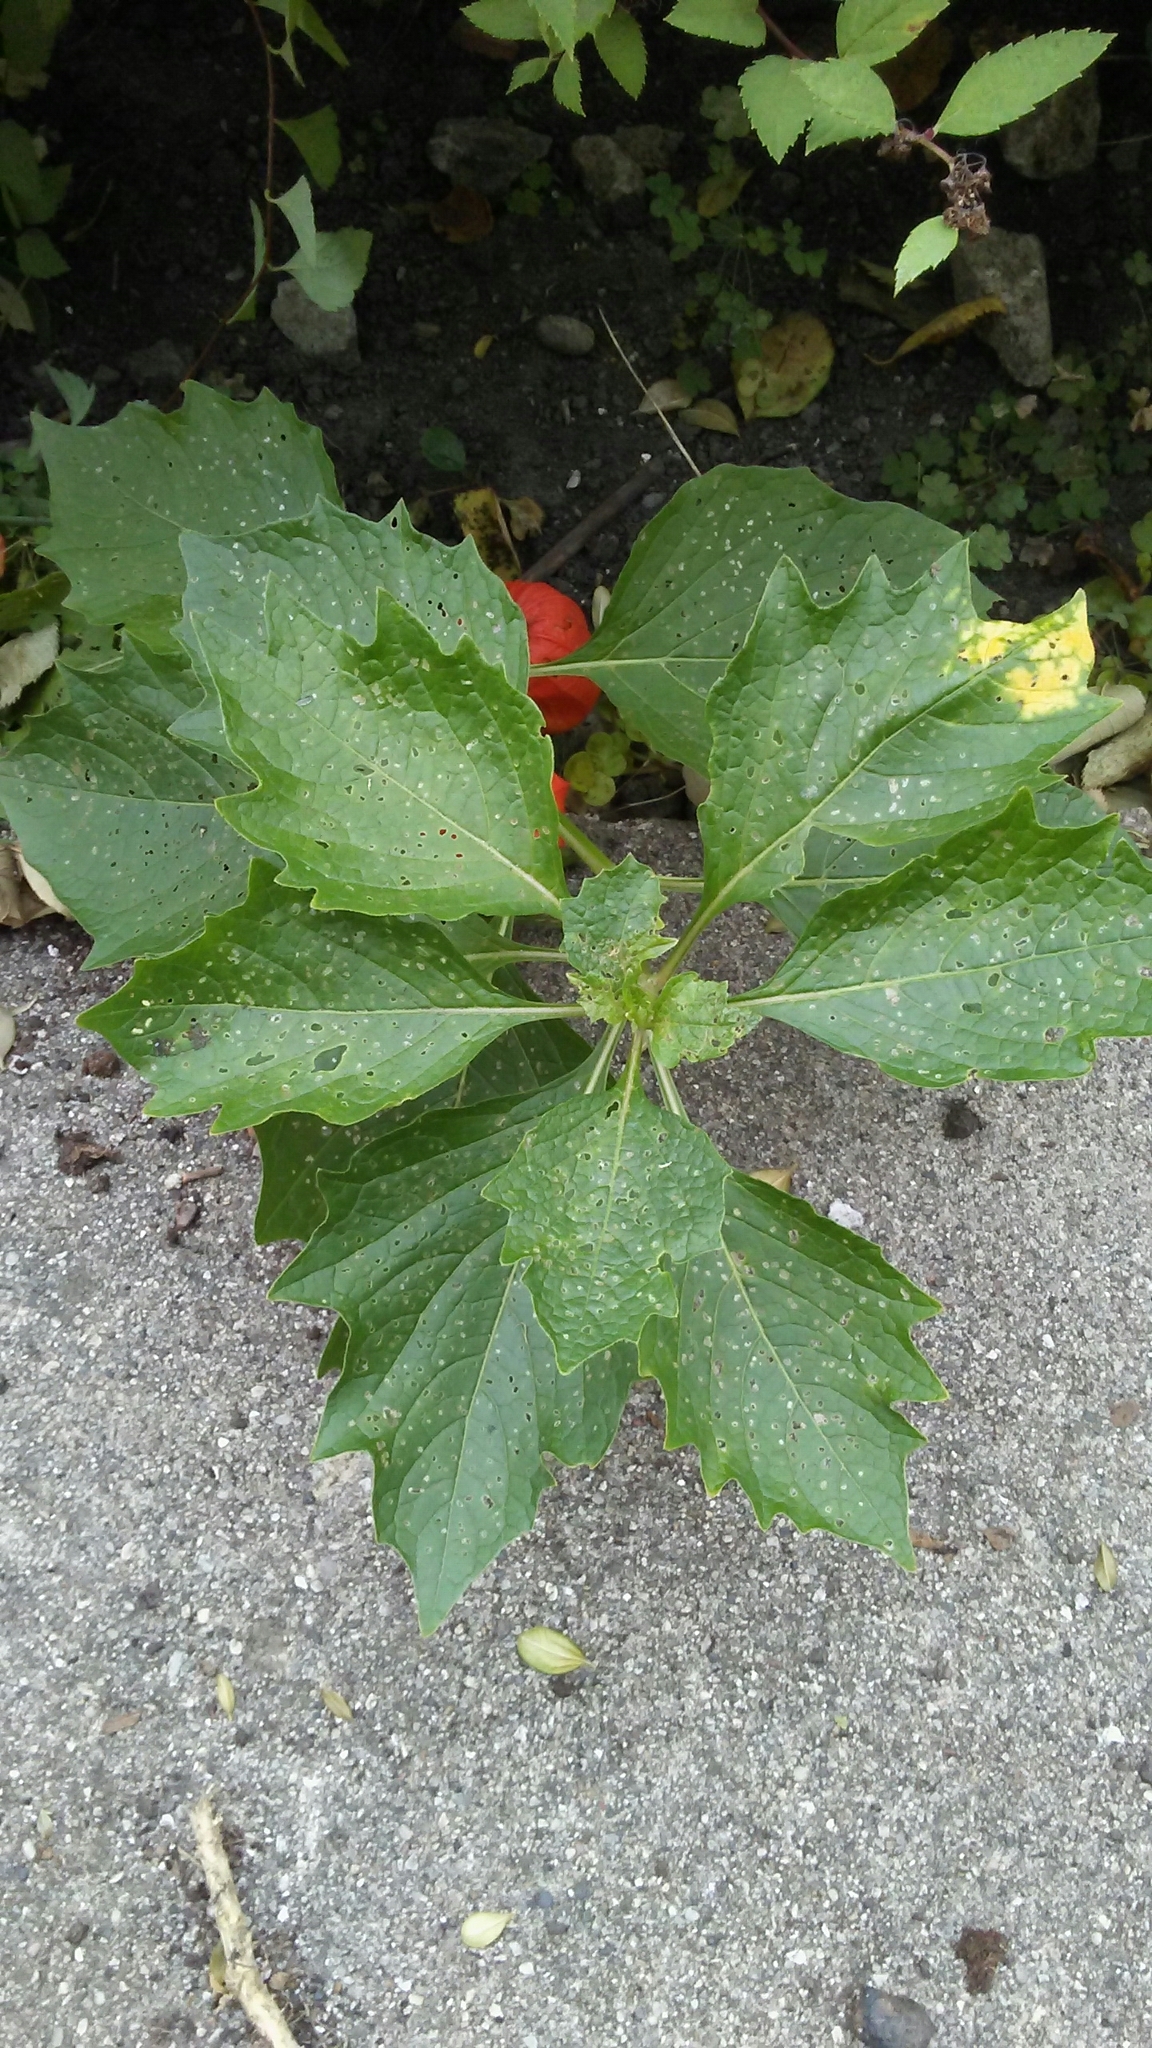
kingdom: Plantae
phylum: Tracheophyta
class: Magnoliopsida
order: Solanales
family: Solanaceae
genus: Alkekengi
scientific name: Alkekengi officinarum
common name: Japanese-lantern
